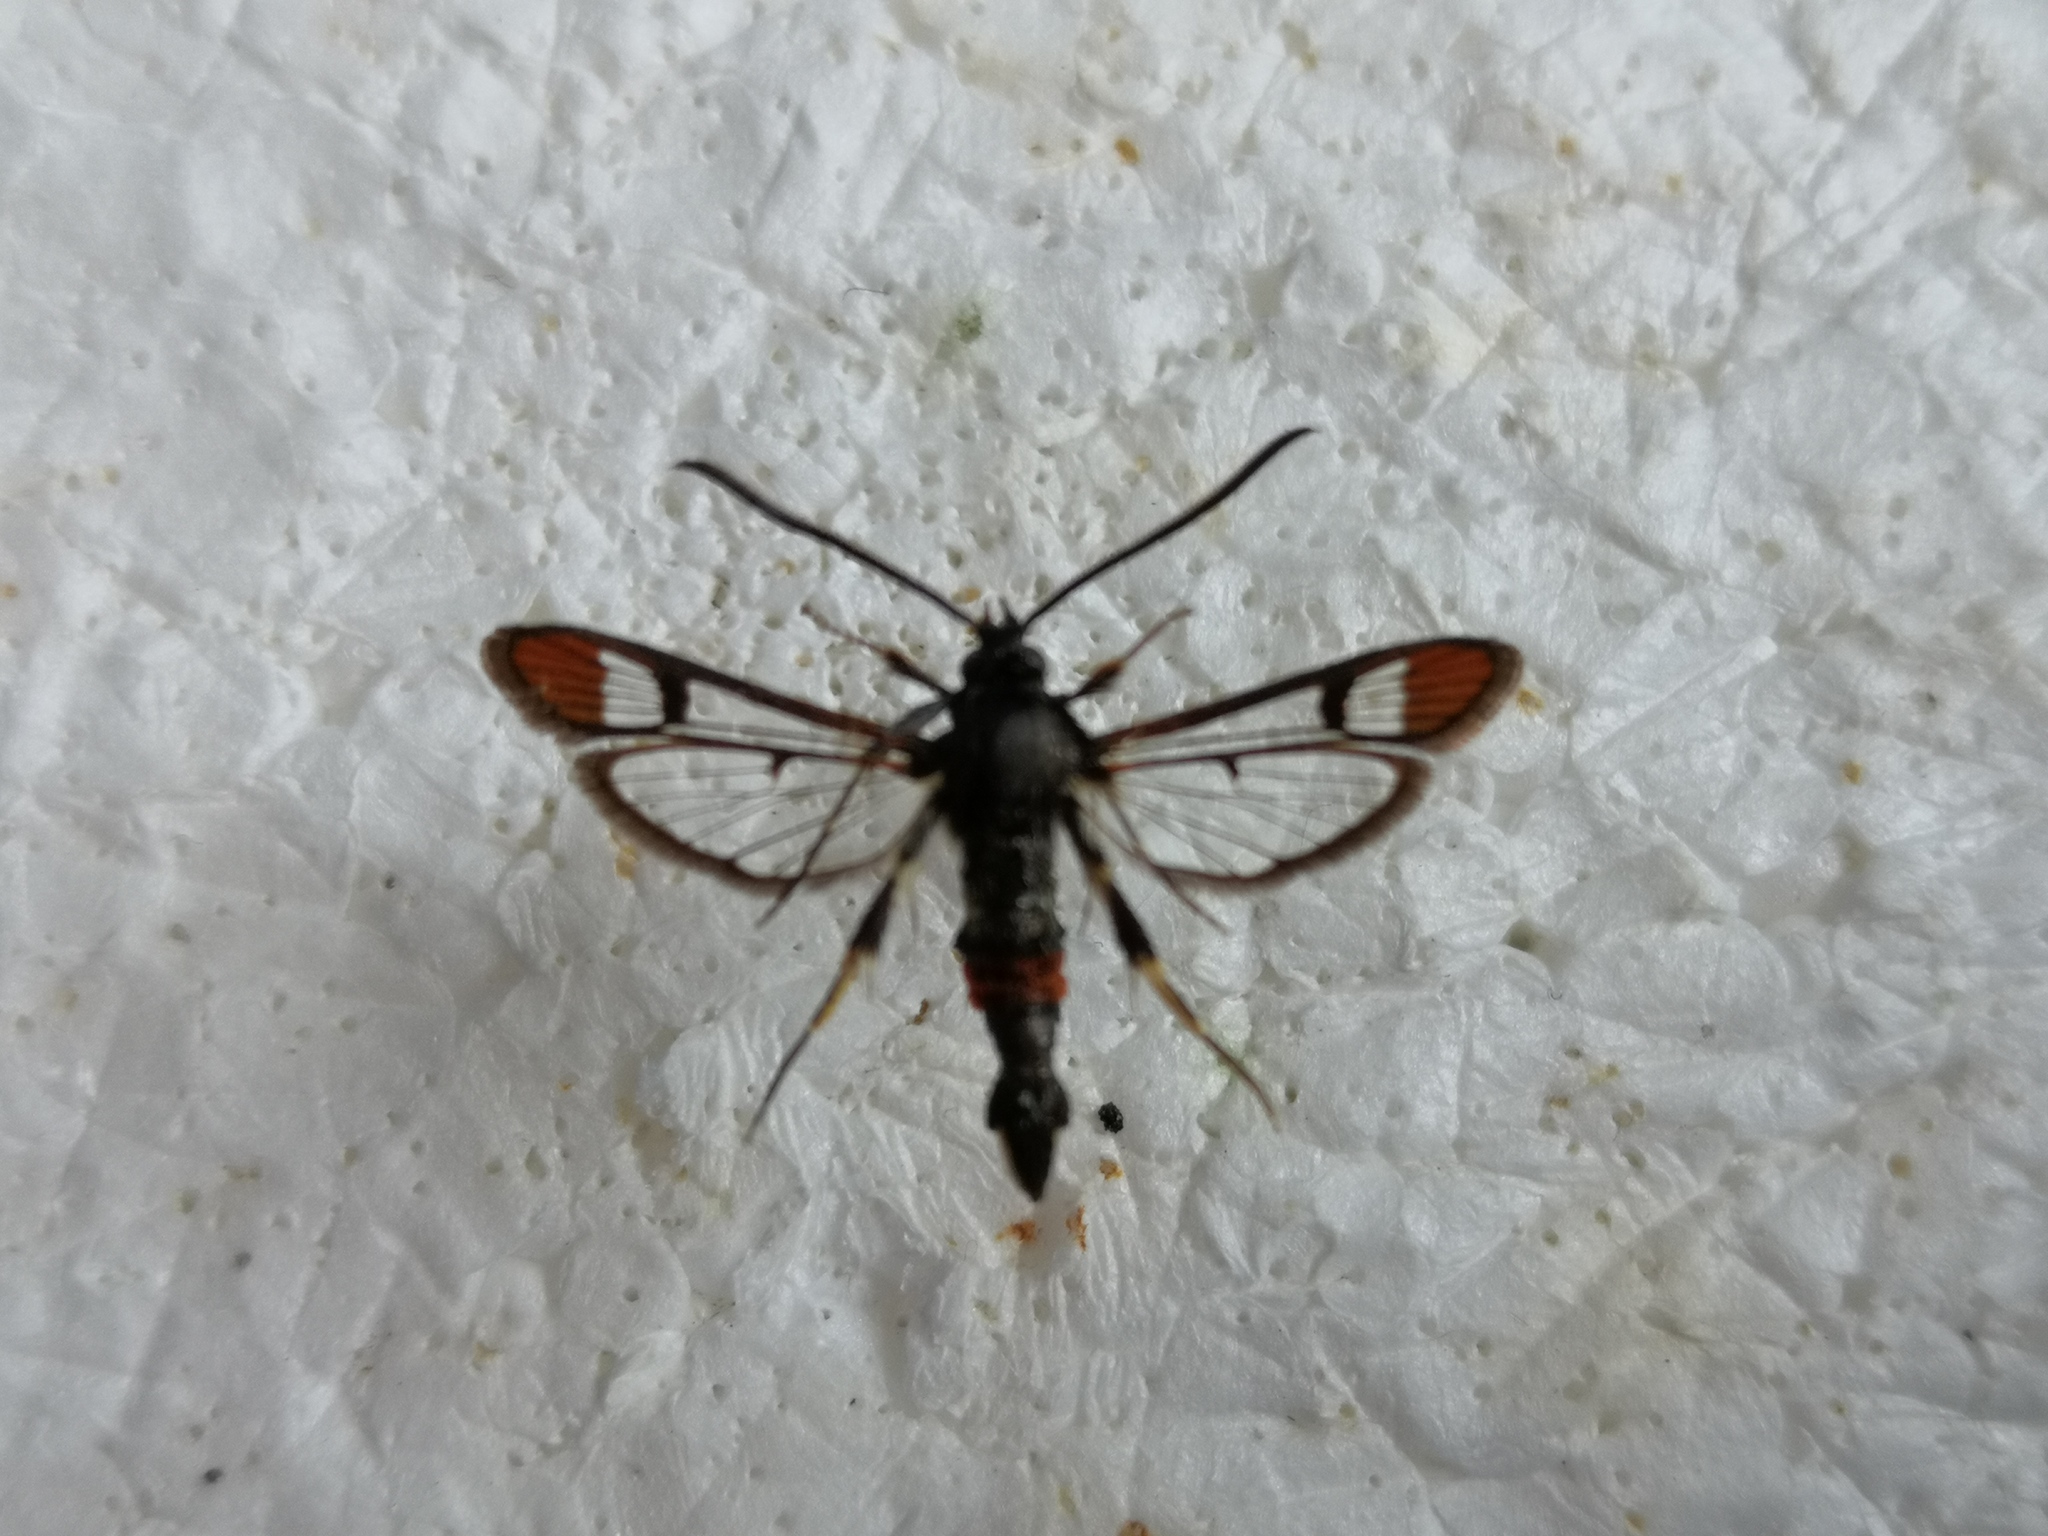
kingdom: Animalia
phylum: Arthropoda
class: Insecta
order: Lepidoptera
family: Sesiidae
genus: Synanthedon
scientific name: Synanthedon formicaeformis
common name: Red-tipped clearwing
